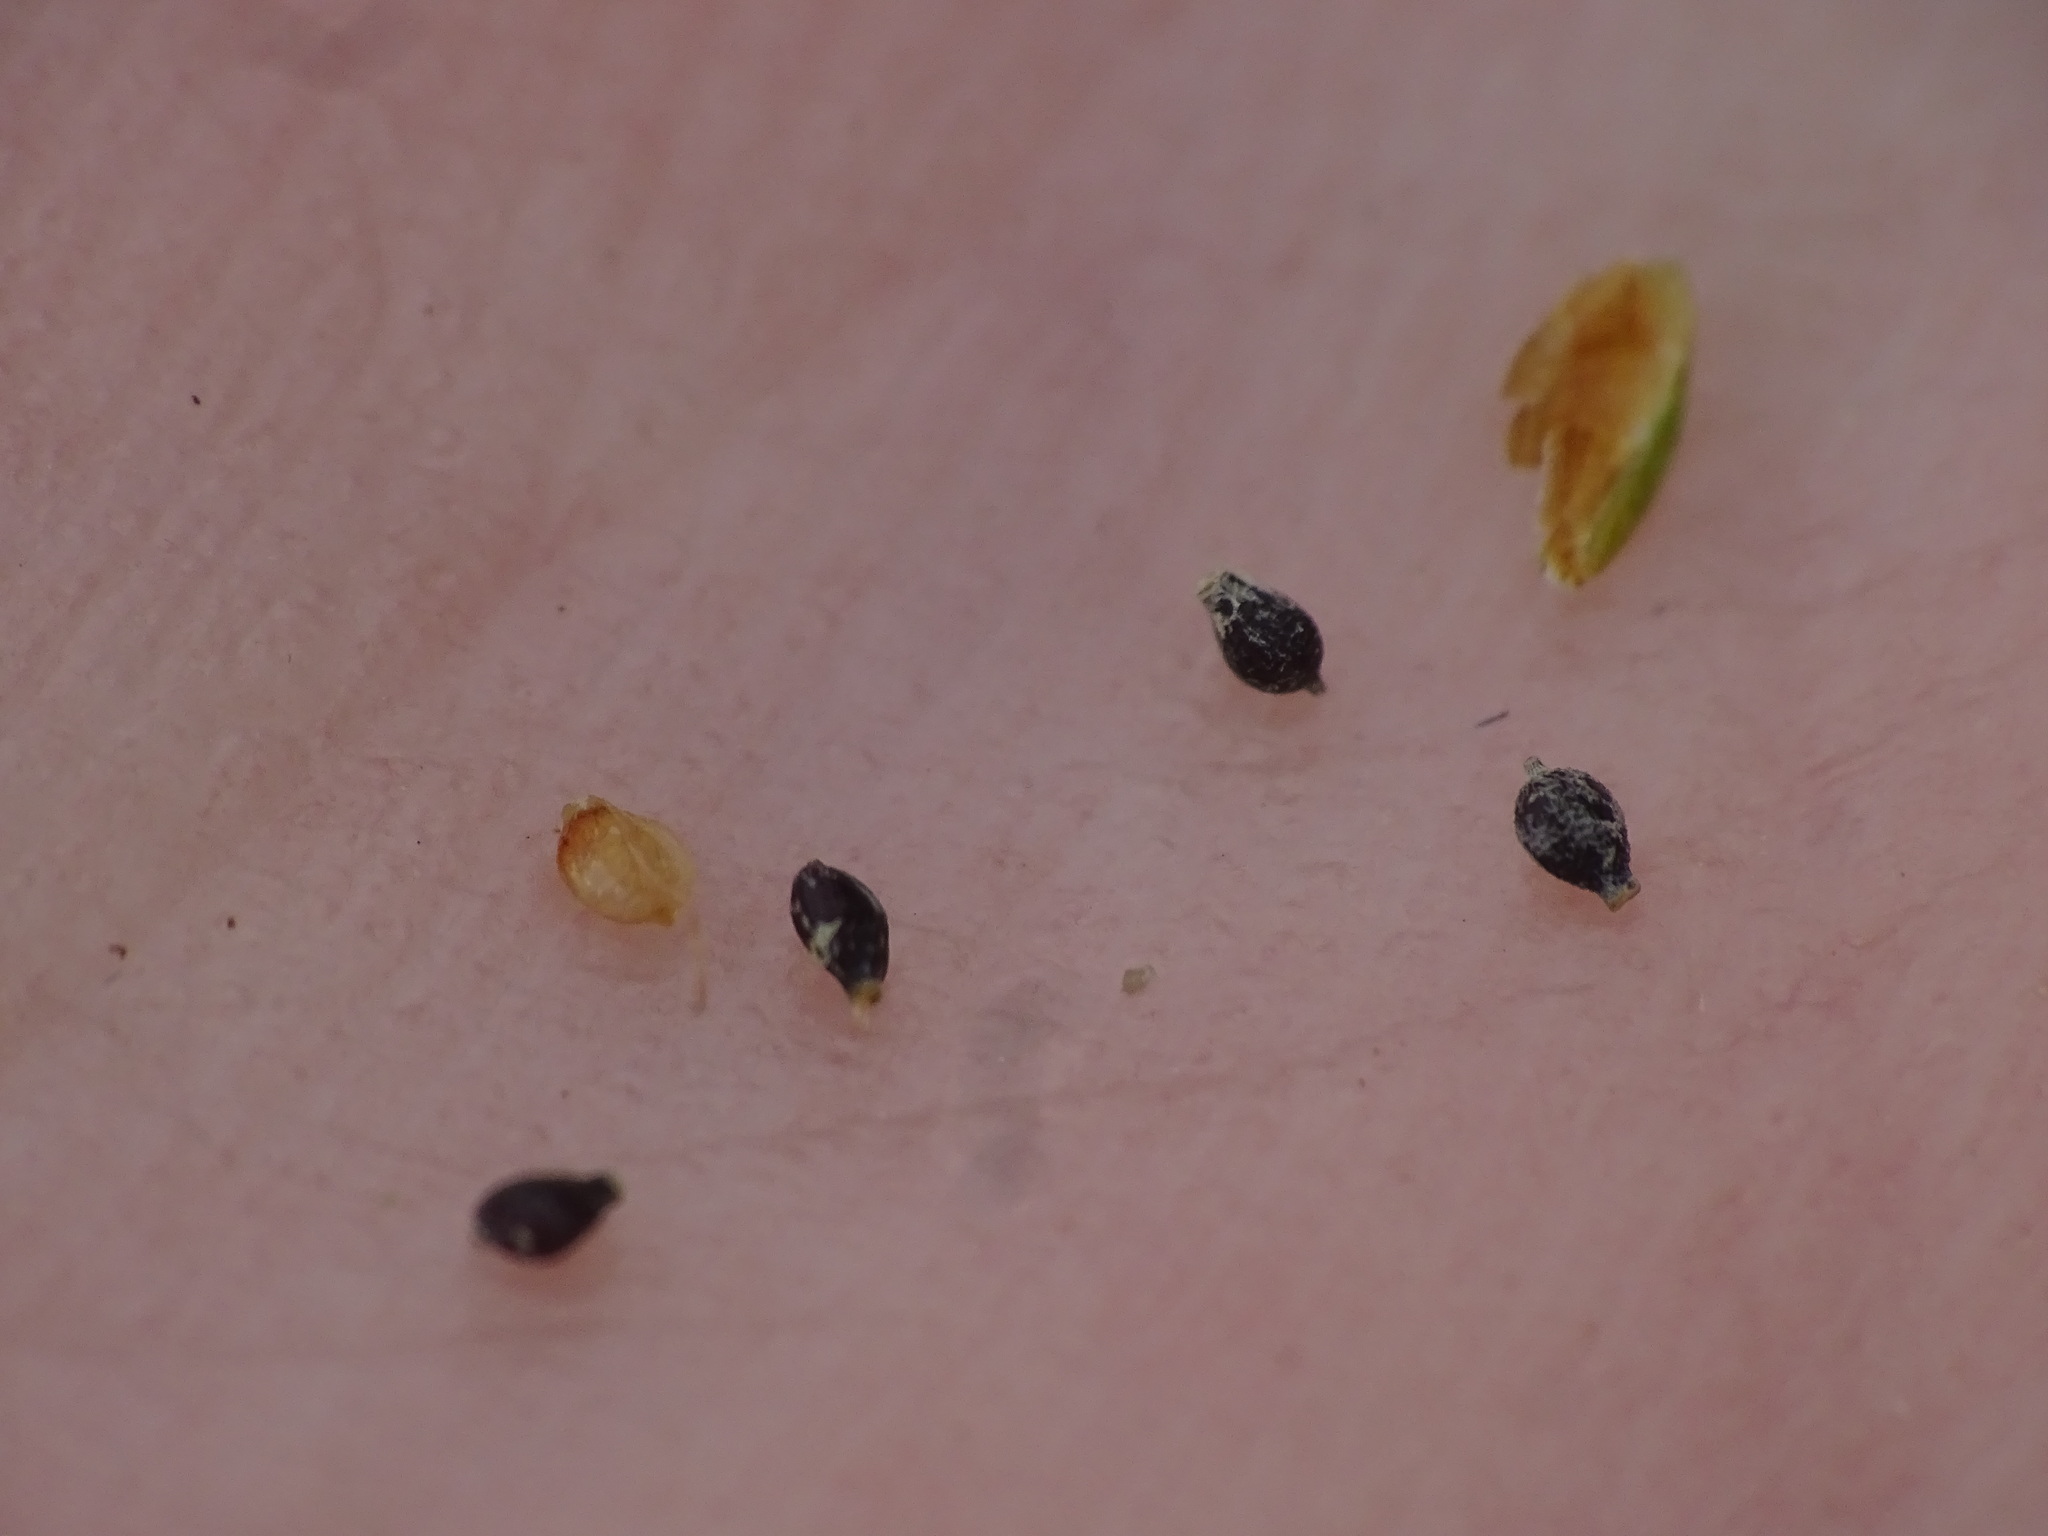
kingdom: Plantae
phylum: Tracheophyta
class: Liliopsida
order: Poales
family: Cyperaceae
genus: Cyperus
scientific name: Cyperus flavescens
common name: Yellow galingale
